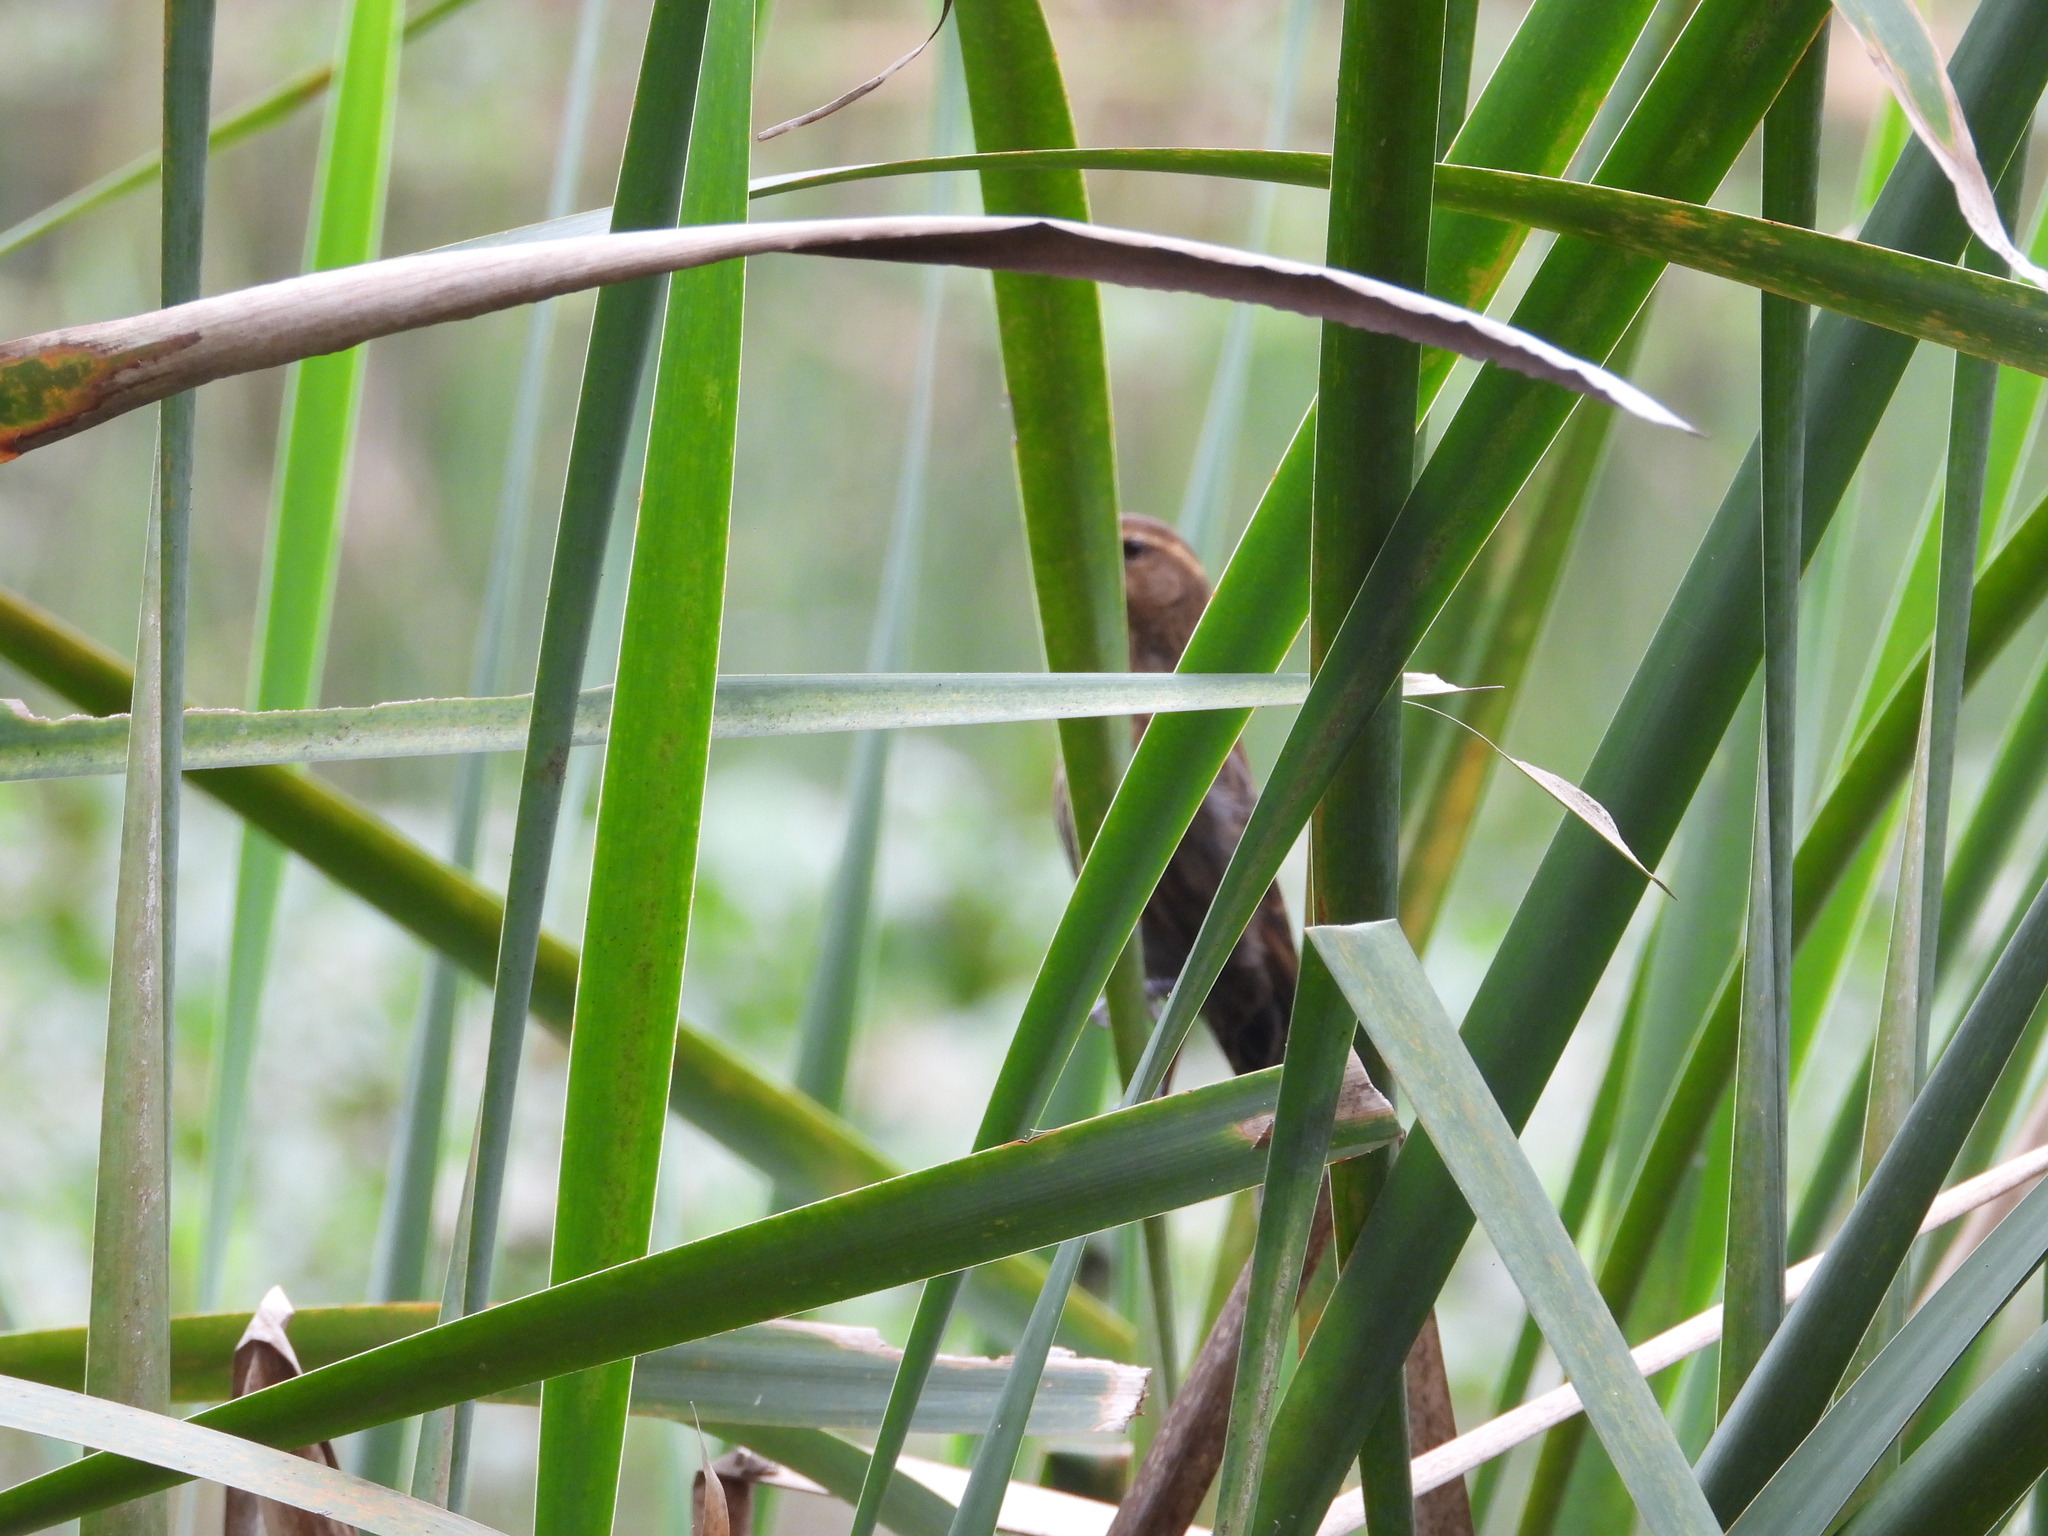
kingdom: Animalia
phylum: Chordata
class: Aves
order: Passeriformes
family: Icteridae
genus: Agelaius
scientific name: Agelaius phoeniceus
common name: Red-winged blackbird
